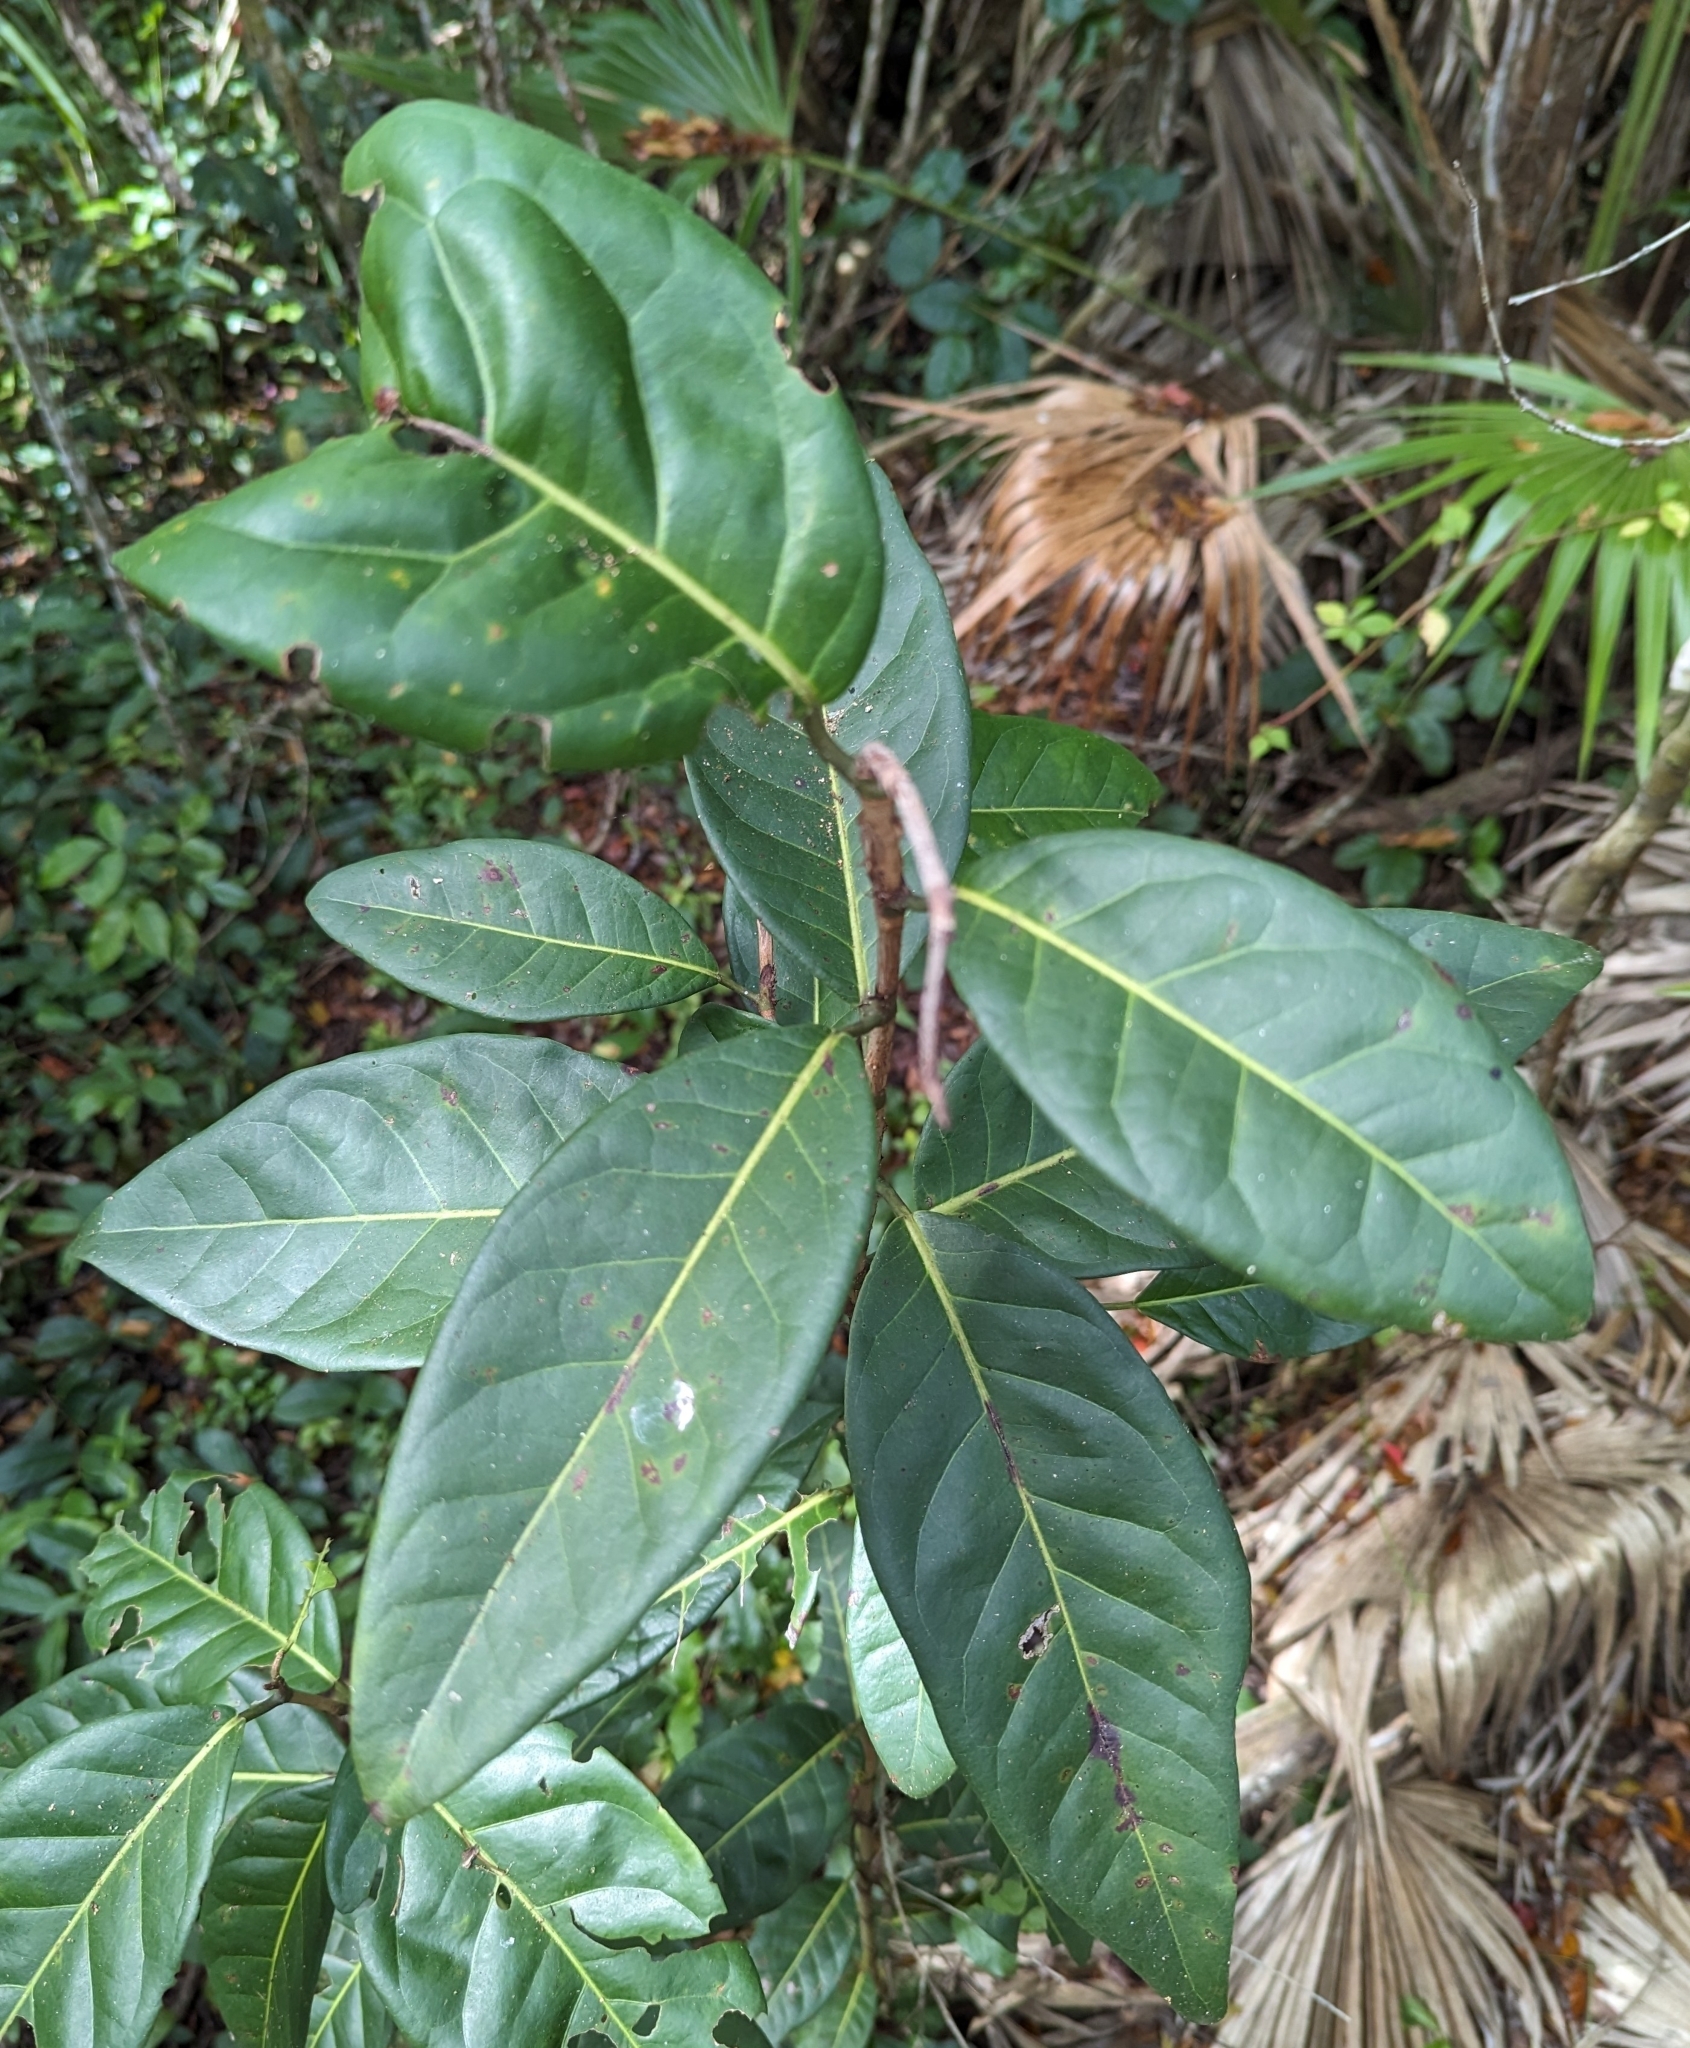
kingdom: Plantae
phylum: Tracheophyta
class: Magnoliopsida
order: Caryophyllales
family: Polygonaceae
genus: Coccoloba
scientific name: Coccoloba diversifolia
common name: Pigeon-plum
